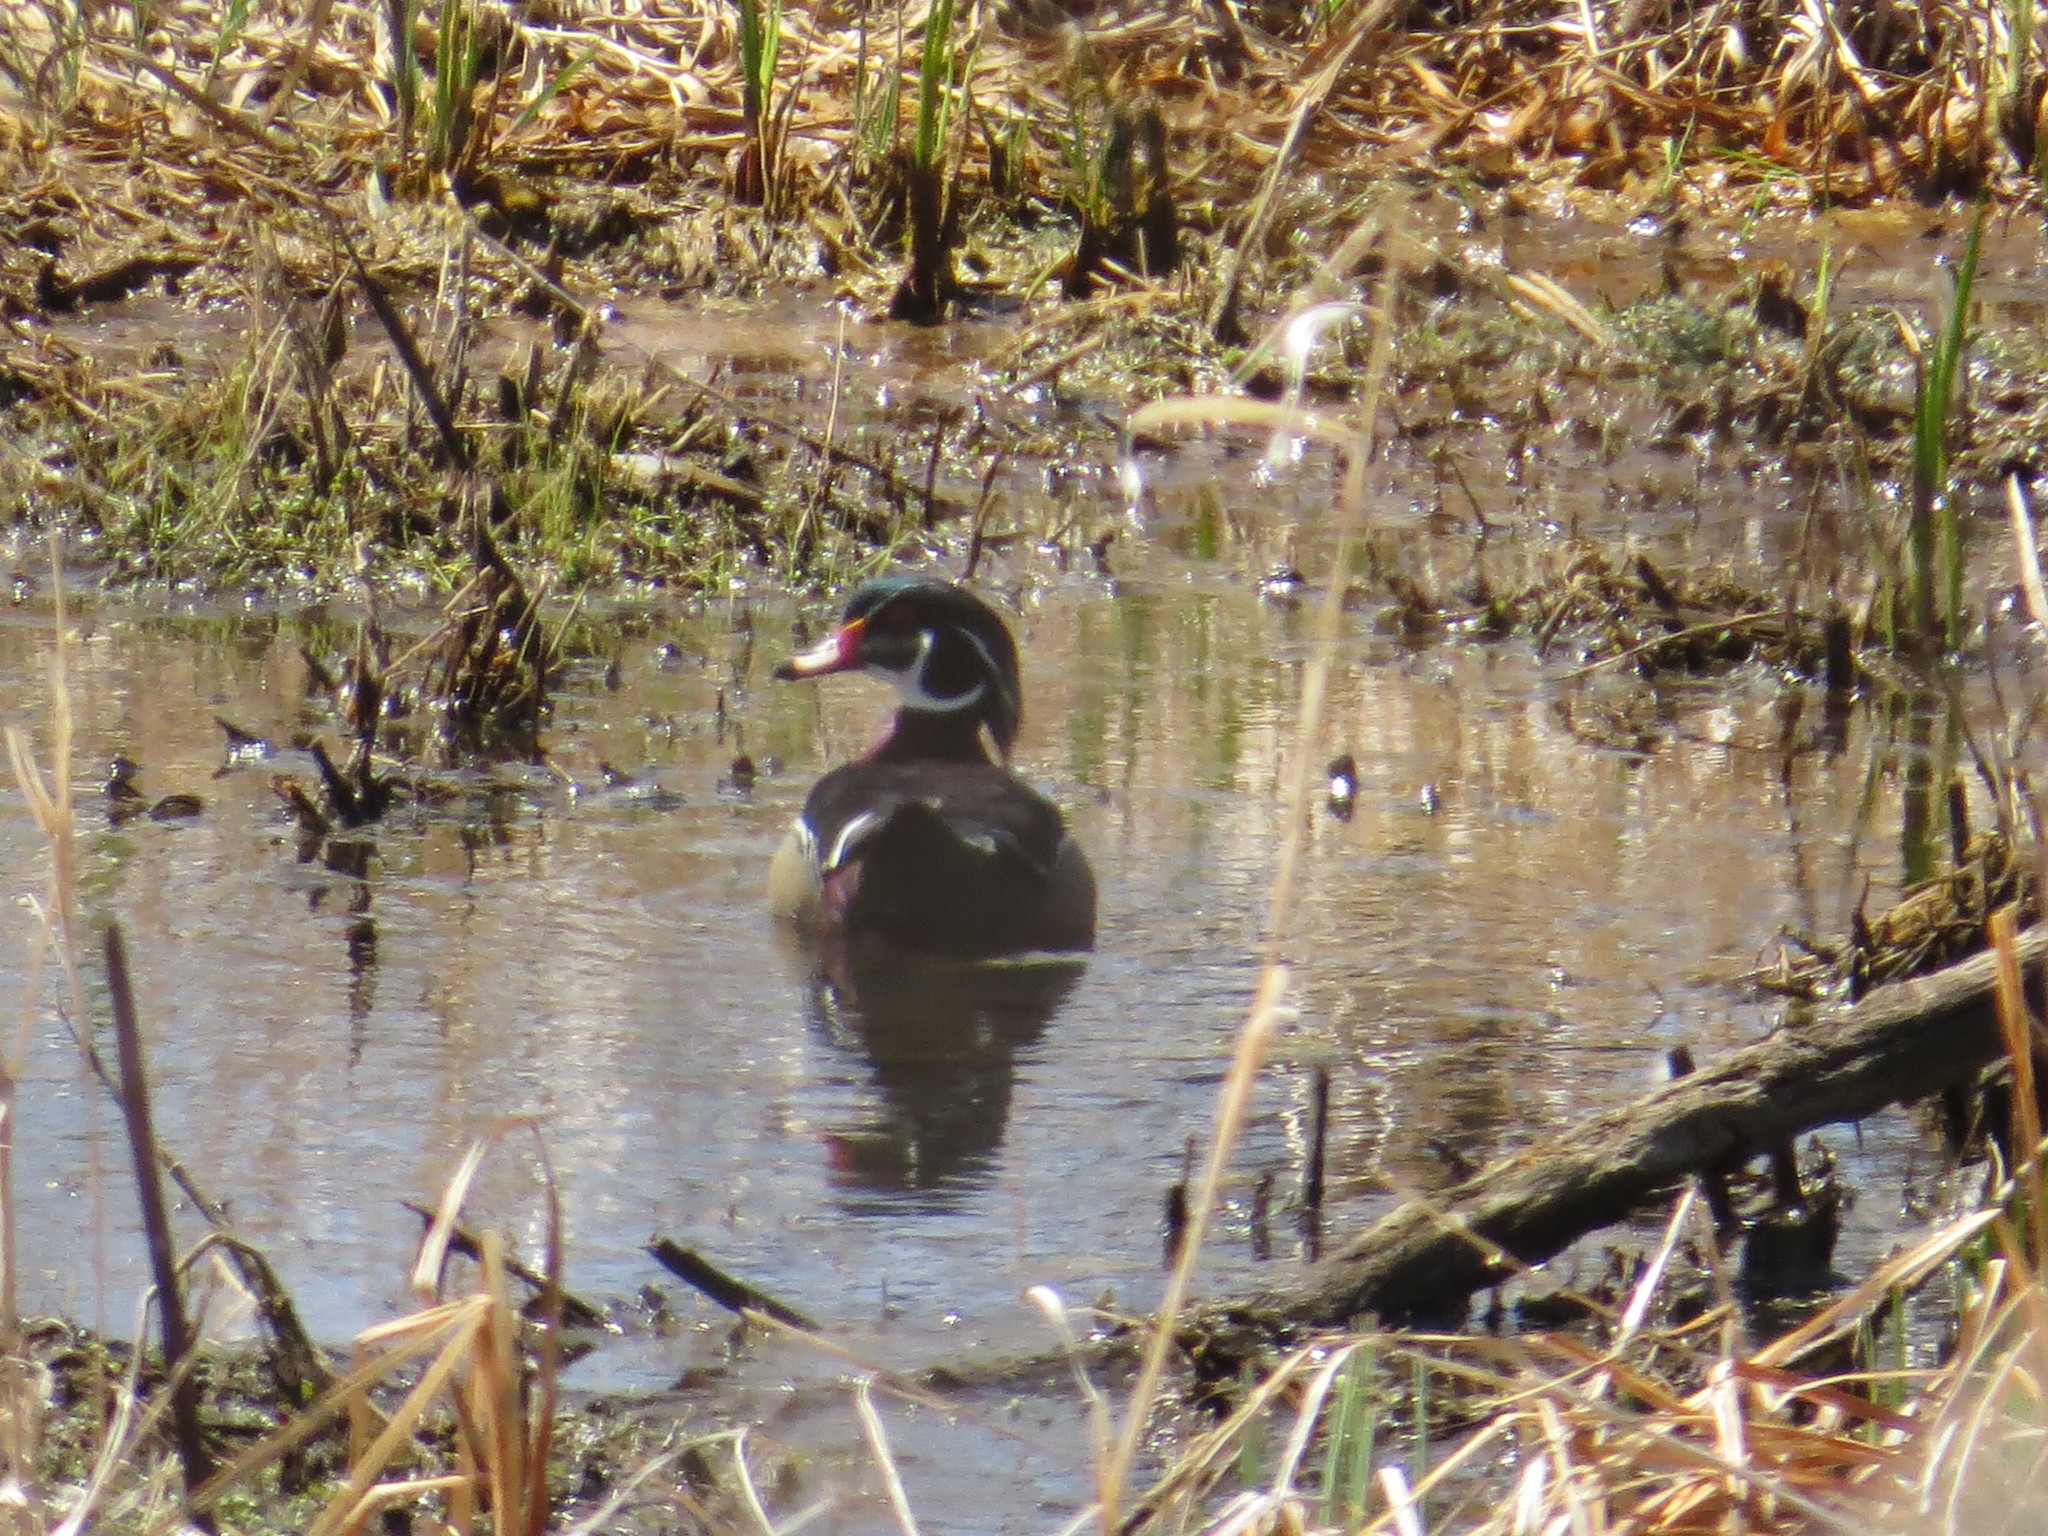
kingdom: Animalia
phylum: Chordata
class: Aves
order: Anseriformes
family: Anatidae
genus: Aix
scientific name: Aix sponsa
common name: Wood duck
